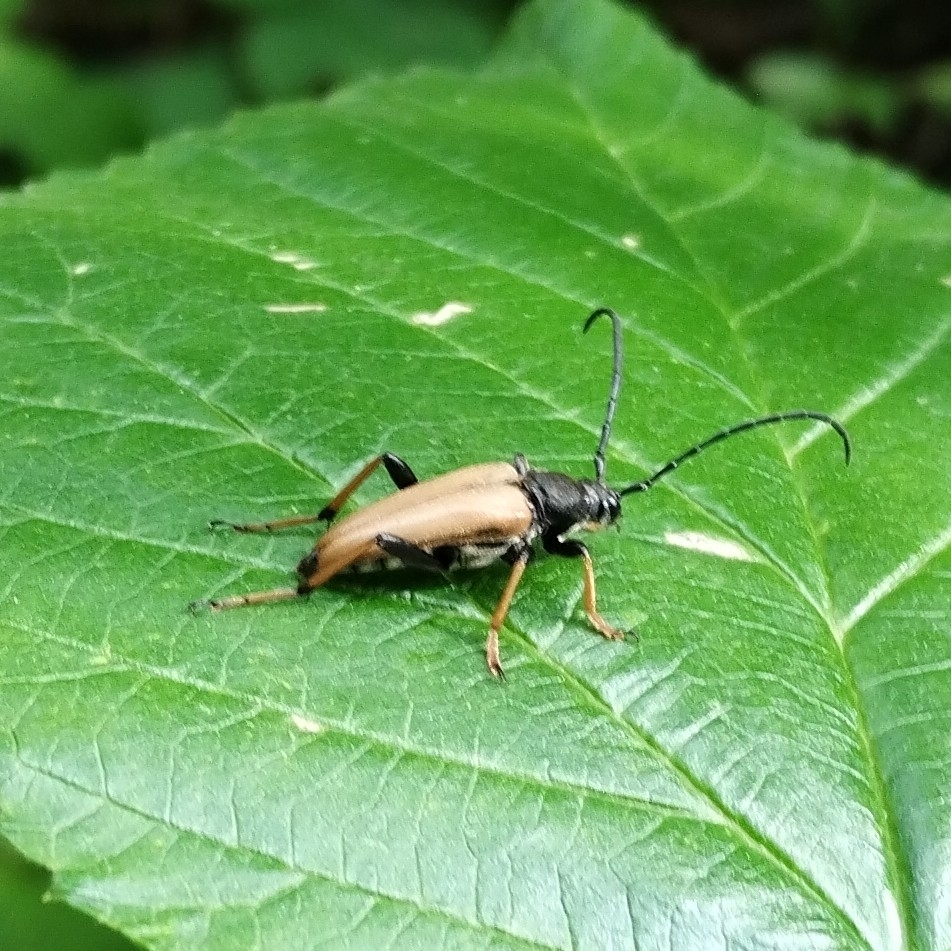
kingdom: Animalia
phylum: Arthropoda
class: Insecta
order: Coleoptera
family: Cerambycidae
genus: Stictoleptura
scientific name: Stictoleptura rubra
